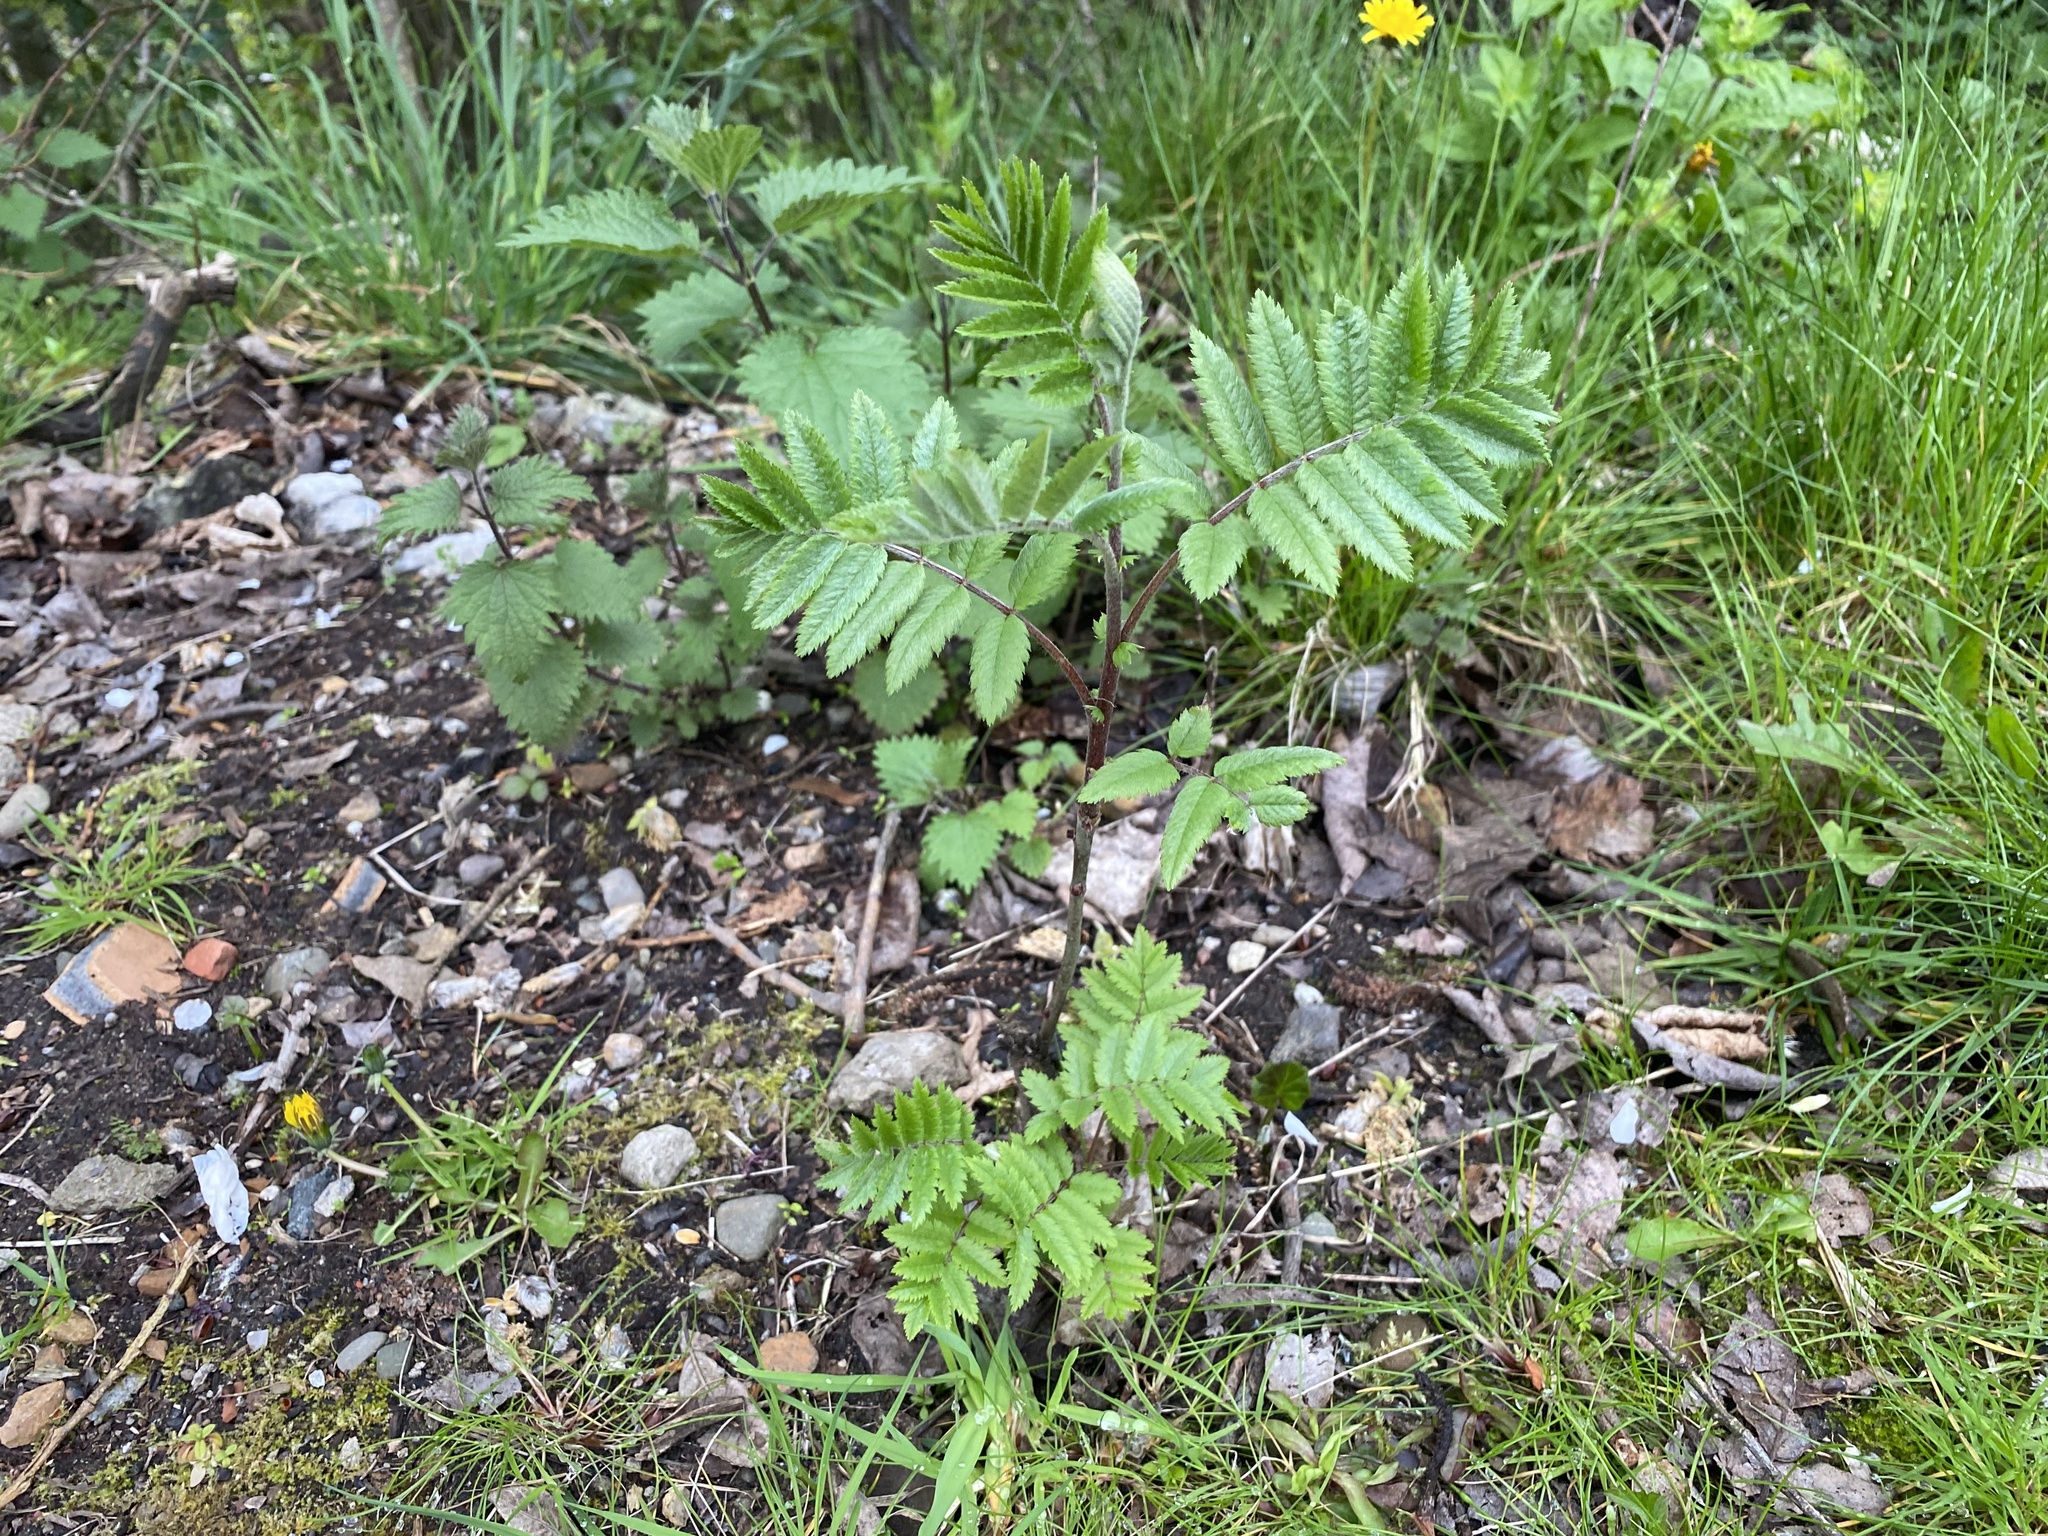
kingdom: Plantae
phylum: Tracheophyta
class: Magnoliopsida
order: Rosales
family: Rosaceae
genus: Sorbus
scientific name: Sorbus aucuparia
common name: Rowan
